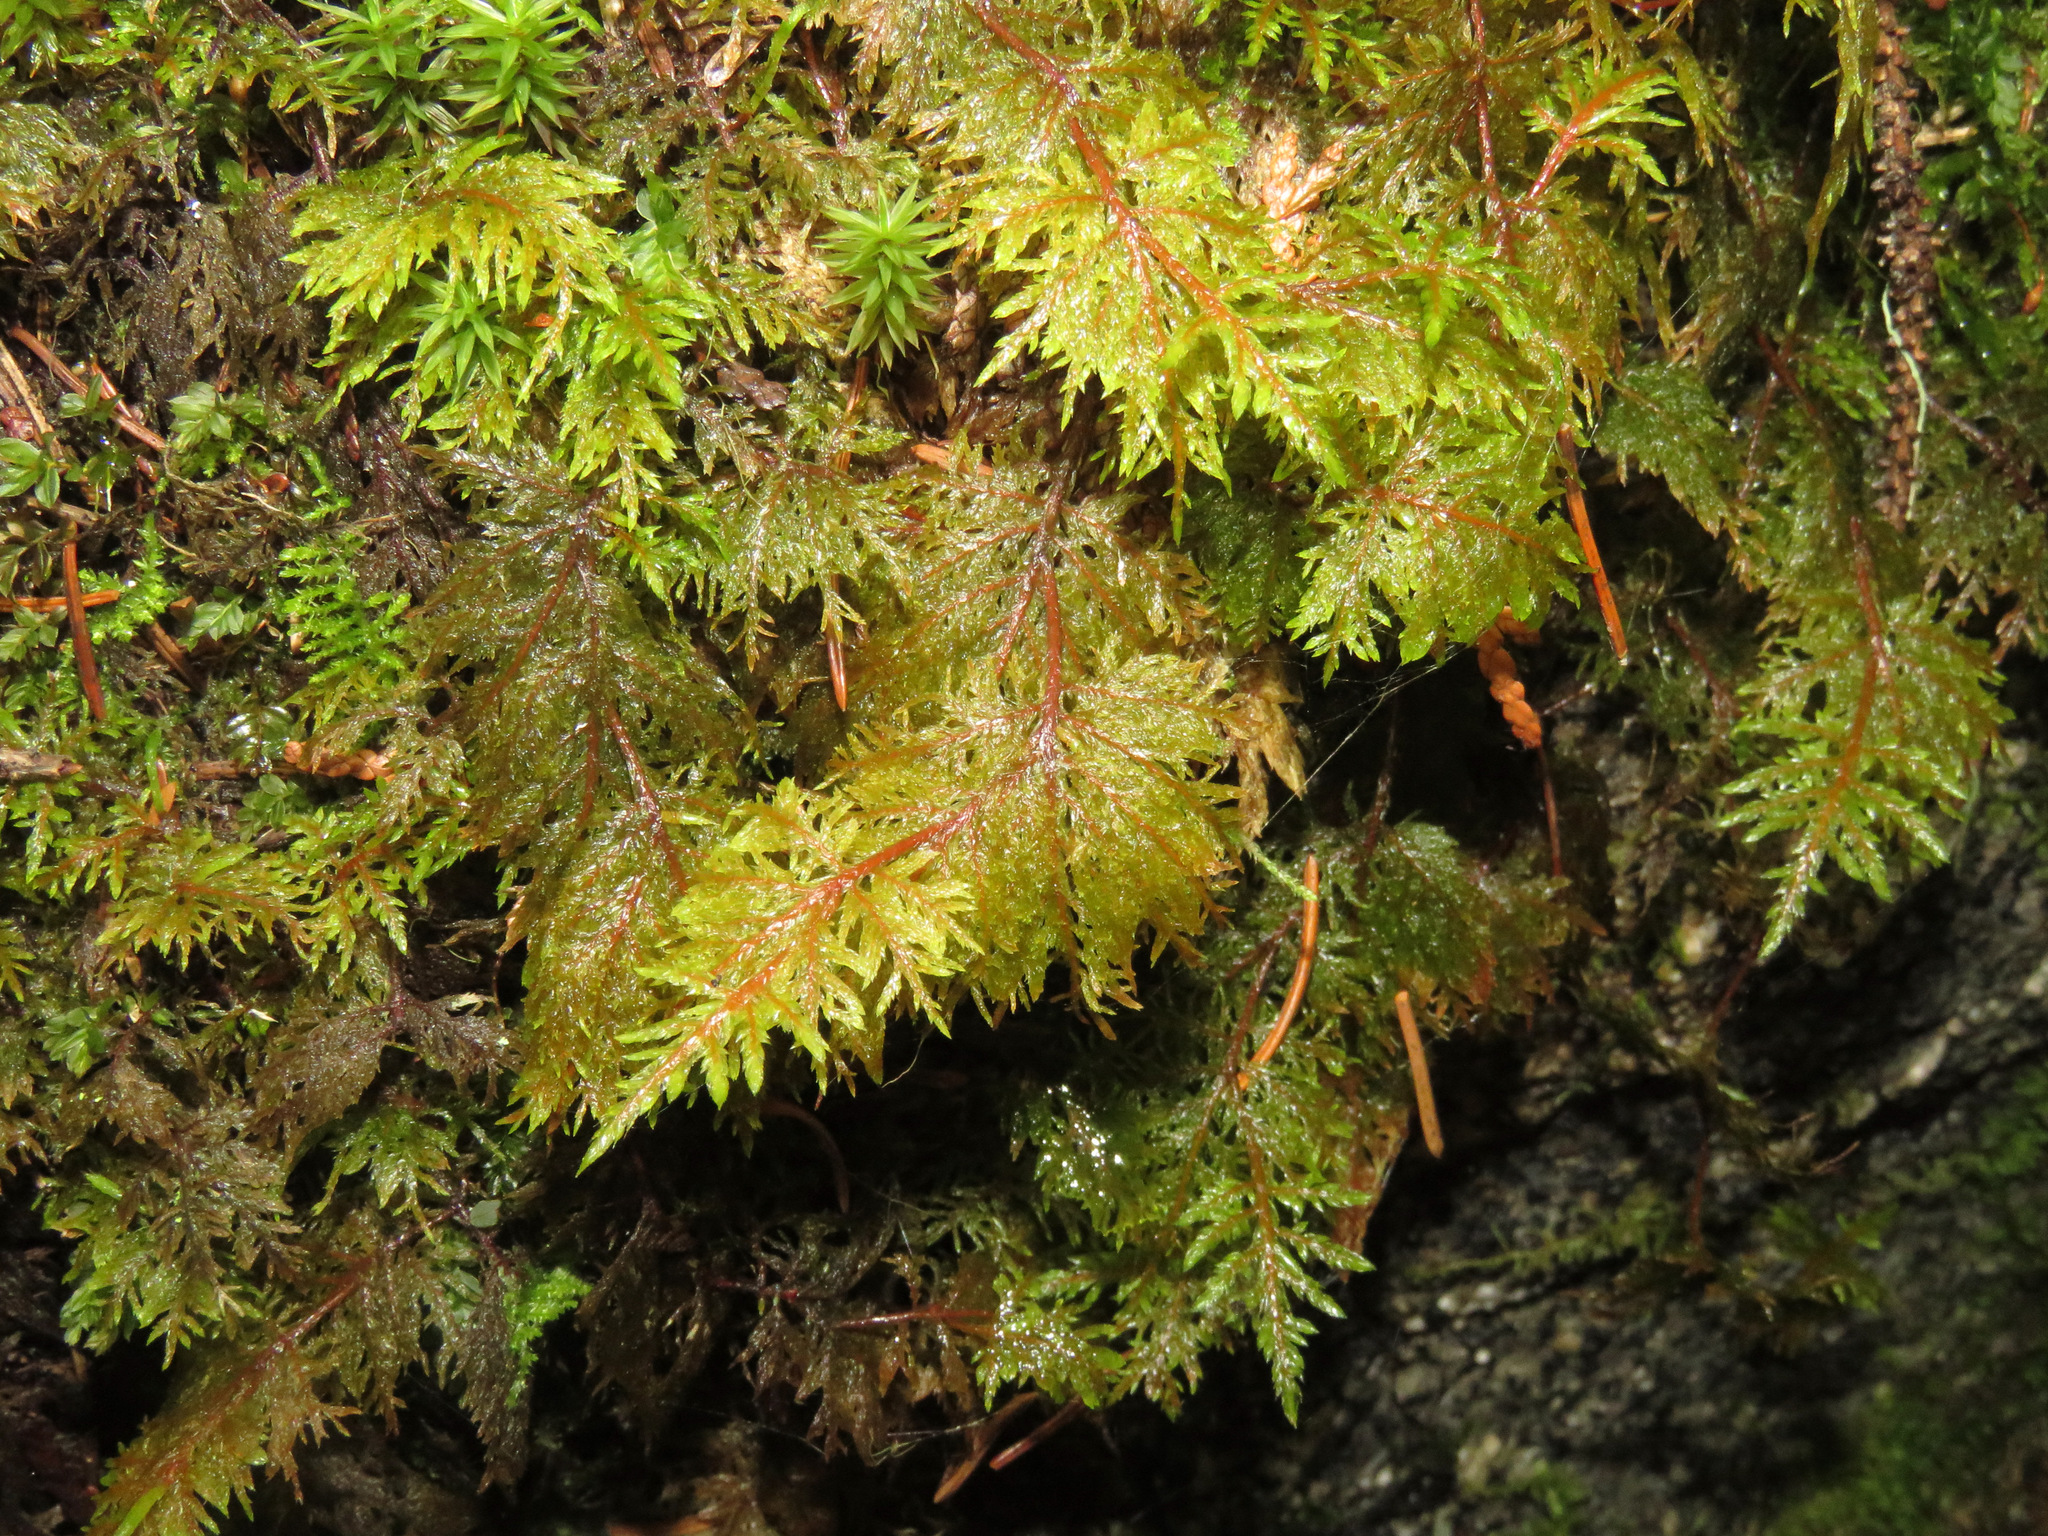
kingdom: Plantae
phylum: Bryophyta
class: Bryopsida
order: Hypnales
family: Hylocomiaceae
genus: Hylocomium
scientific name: Hylocomium splendens
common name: Stairstep moss
